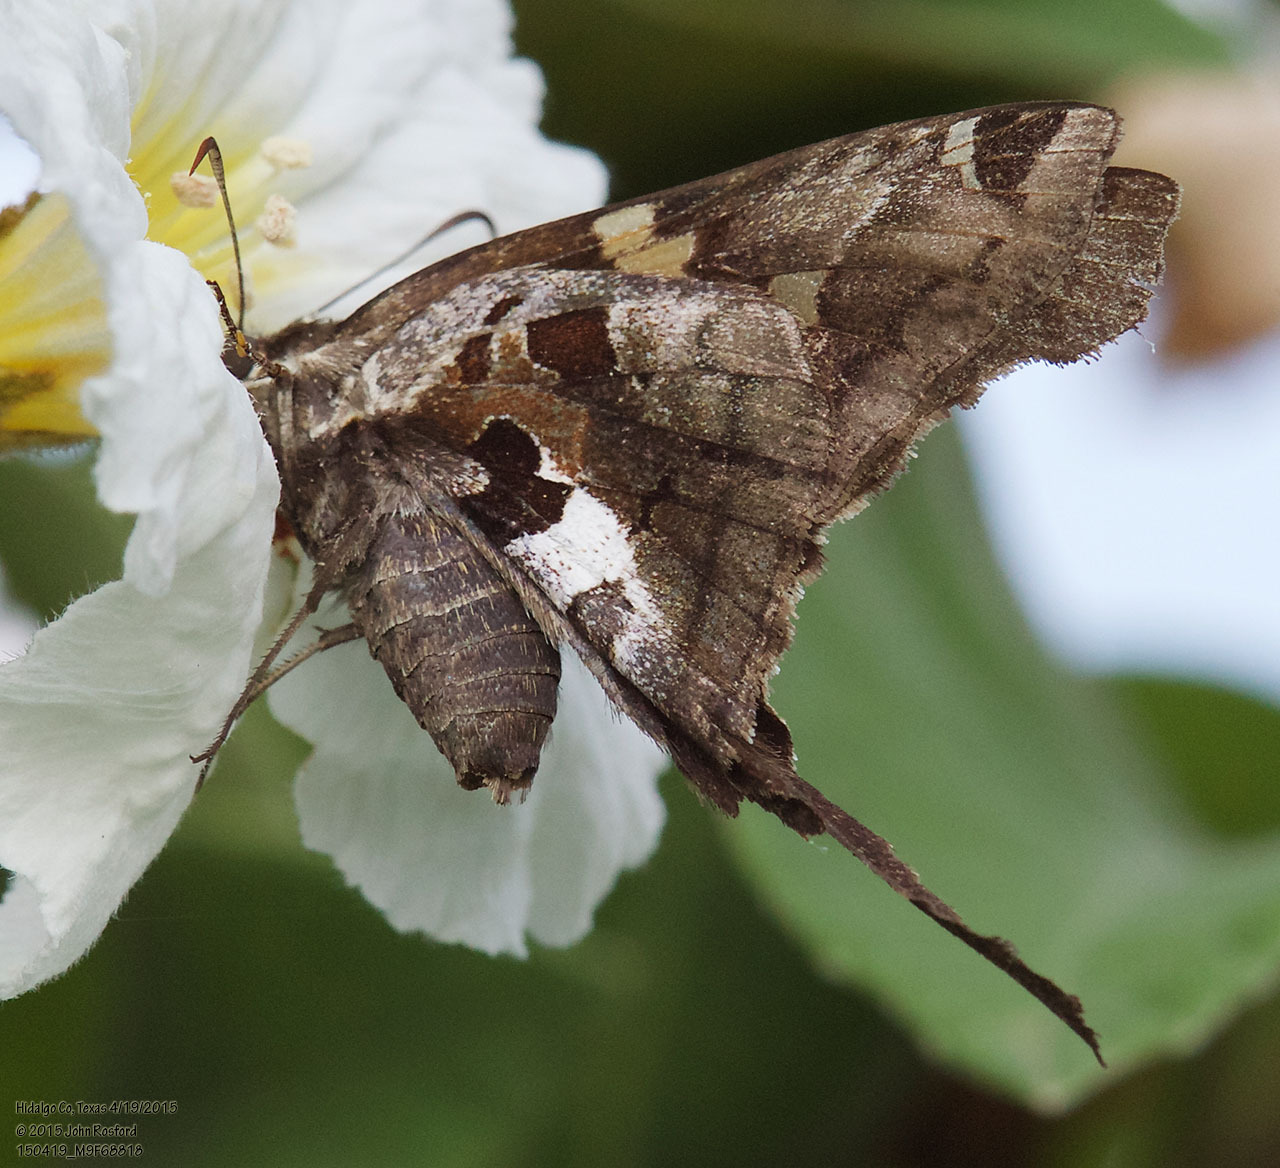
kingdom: Animalia
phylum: Arthropoda
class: Insecta
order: Lepidoptera
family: Hesperiidae
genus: Chioides
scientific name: Chioides zilpa
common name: Zilpa longtail
